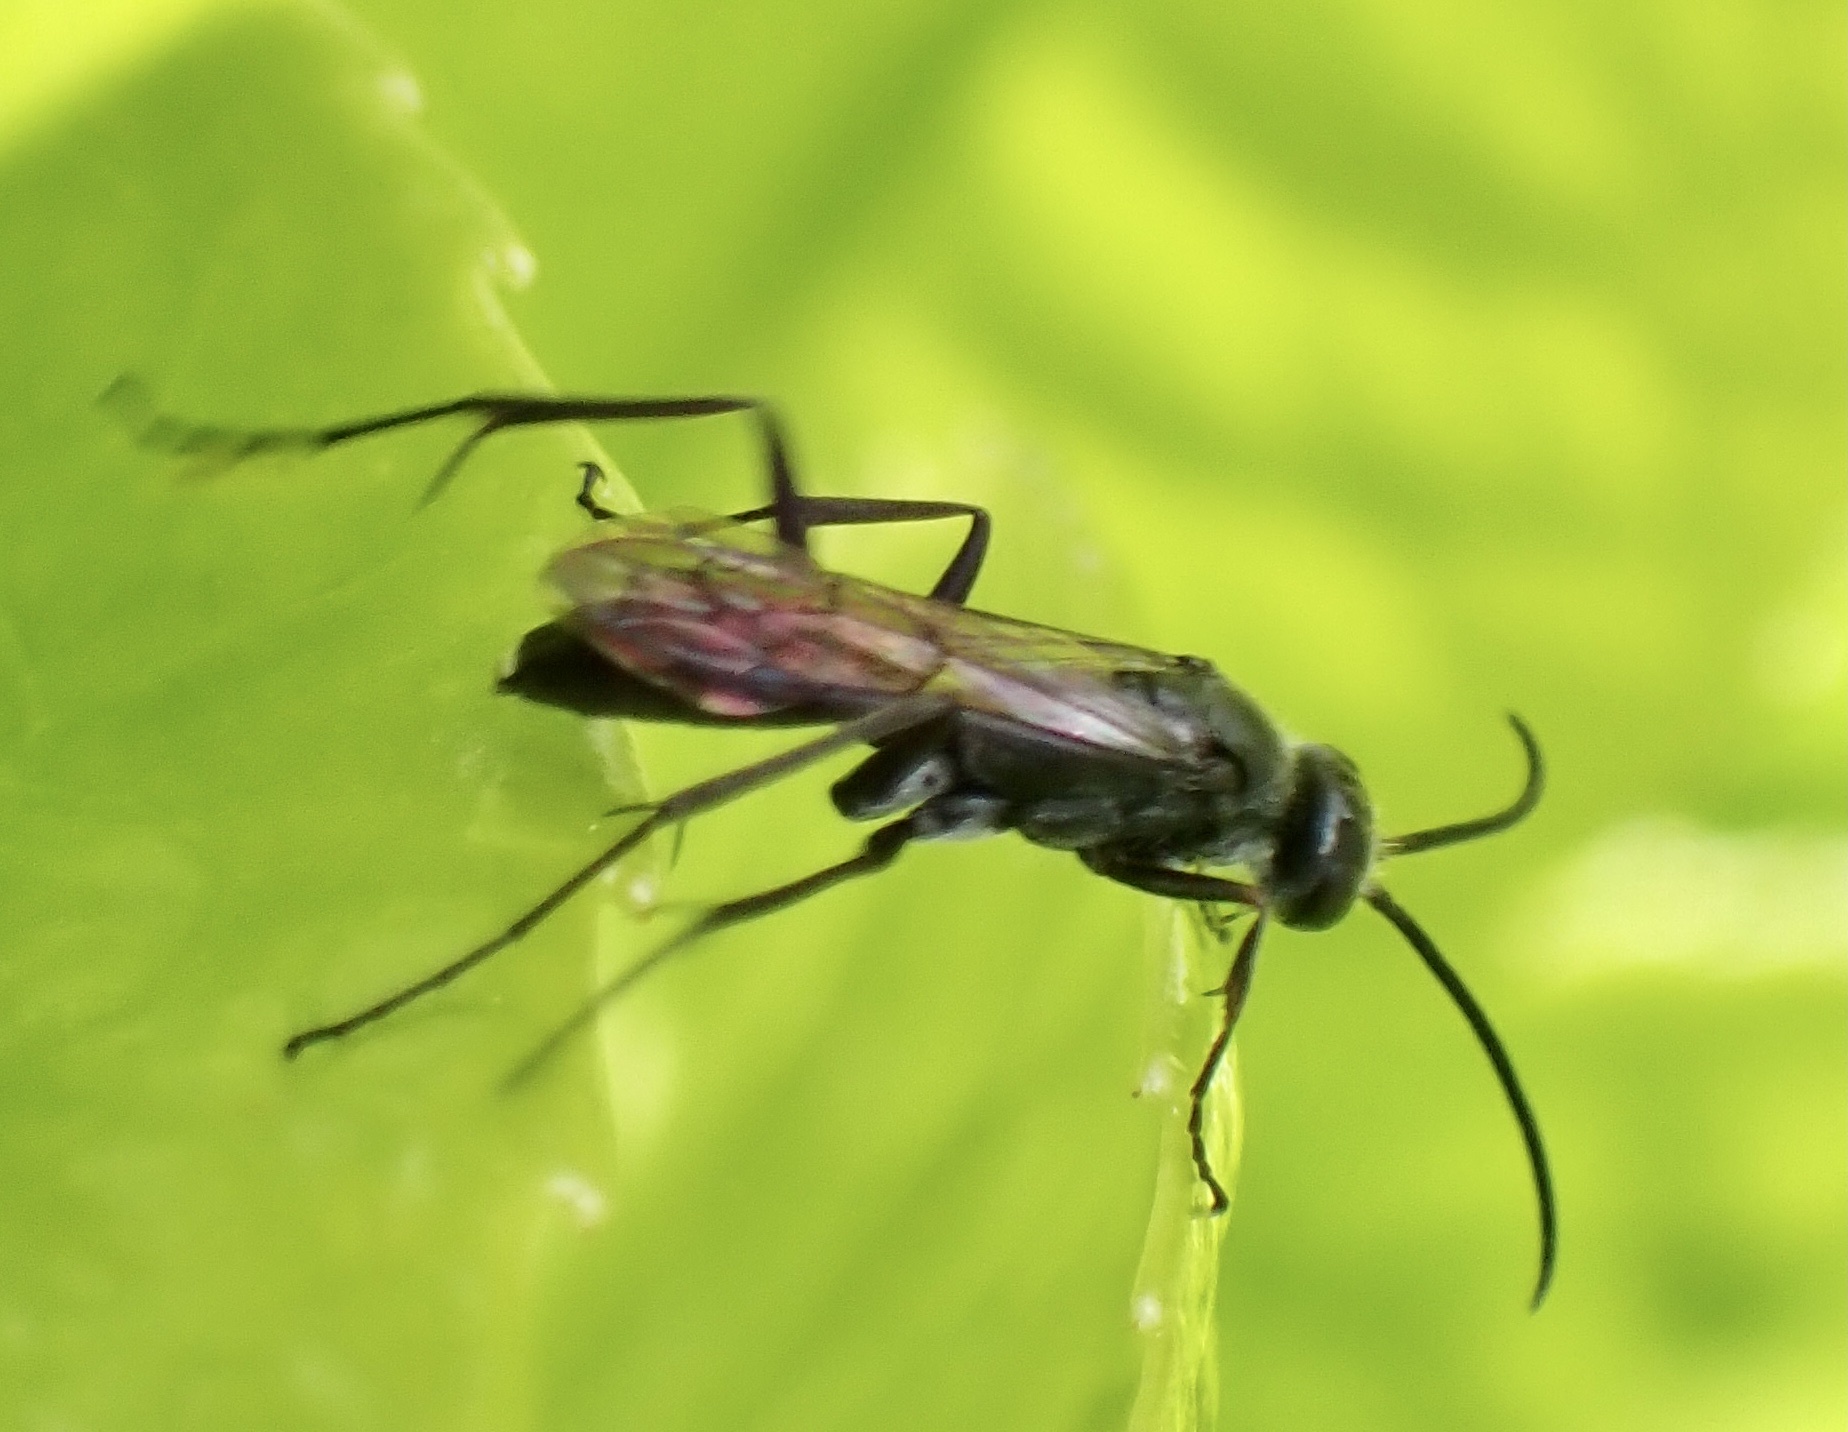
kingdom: Animalia
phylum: Arthropoda
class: Insecta
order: Hymenoptera
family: Pompilidae
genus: Auplopus
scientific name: Auplopus carbonarius
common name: Spider wasp
